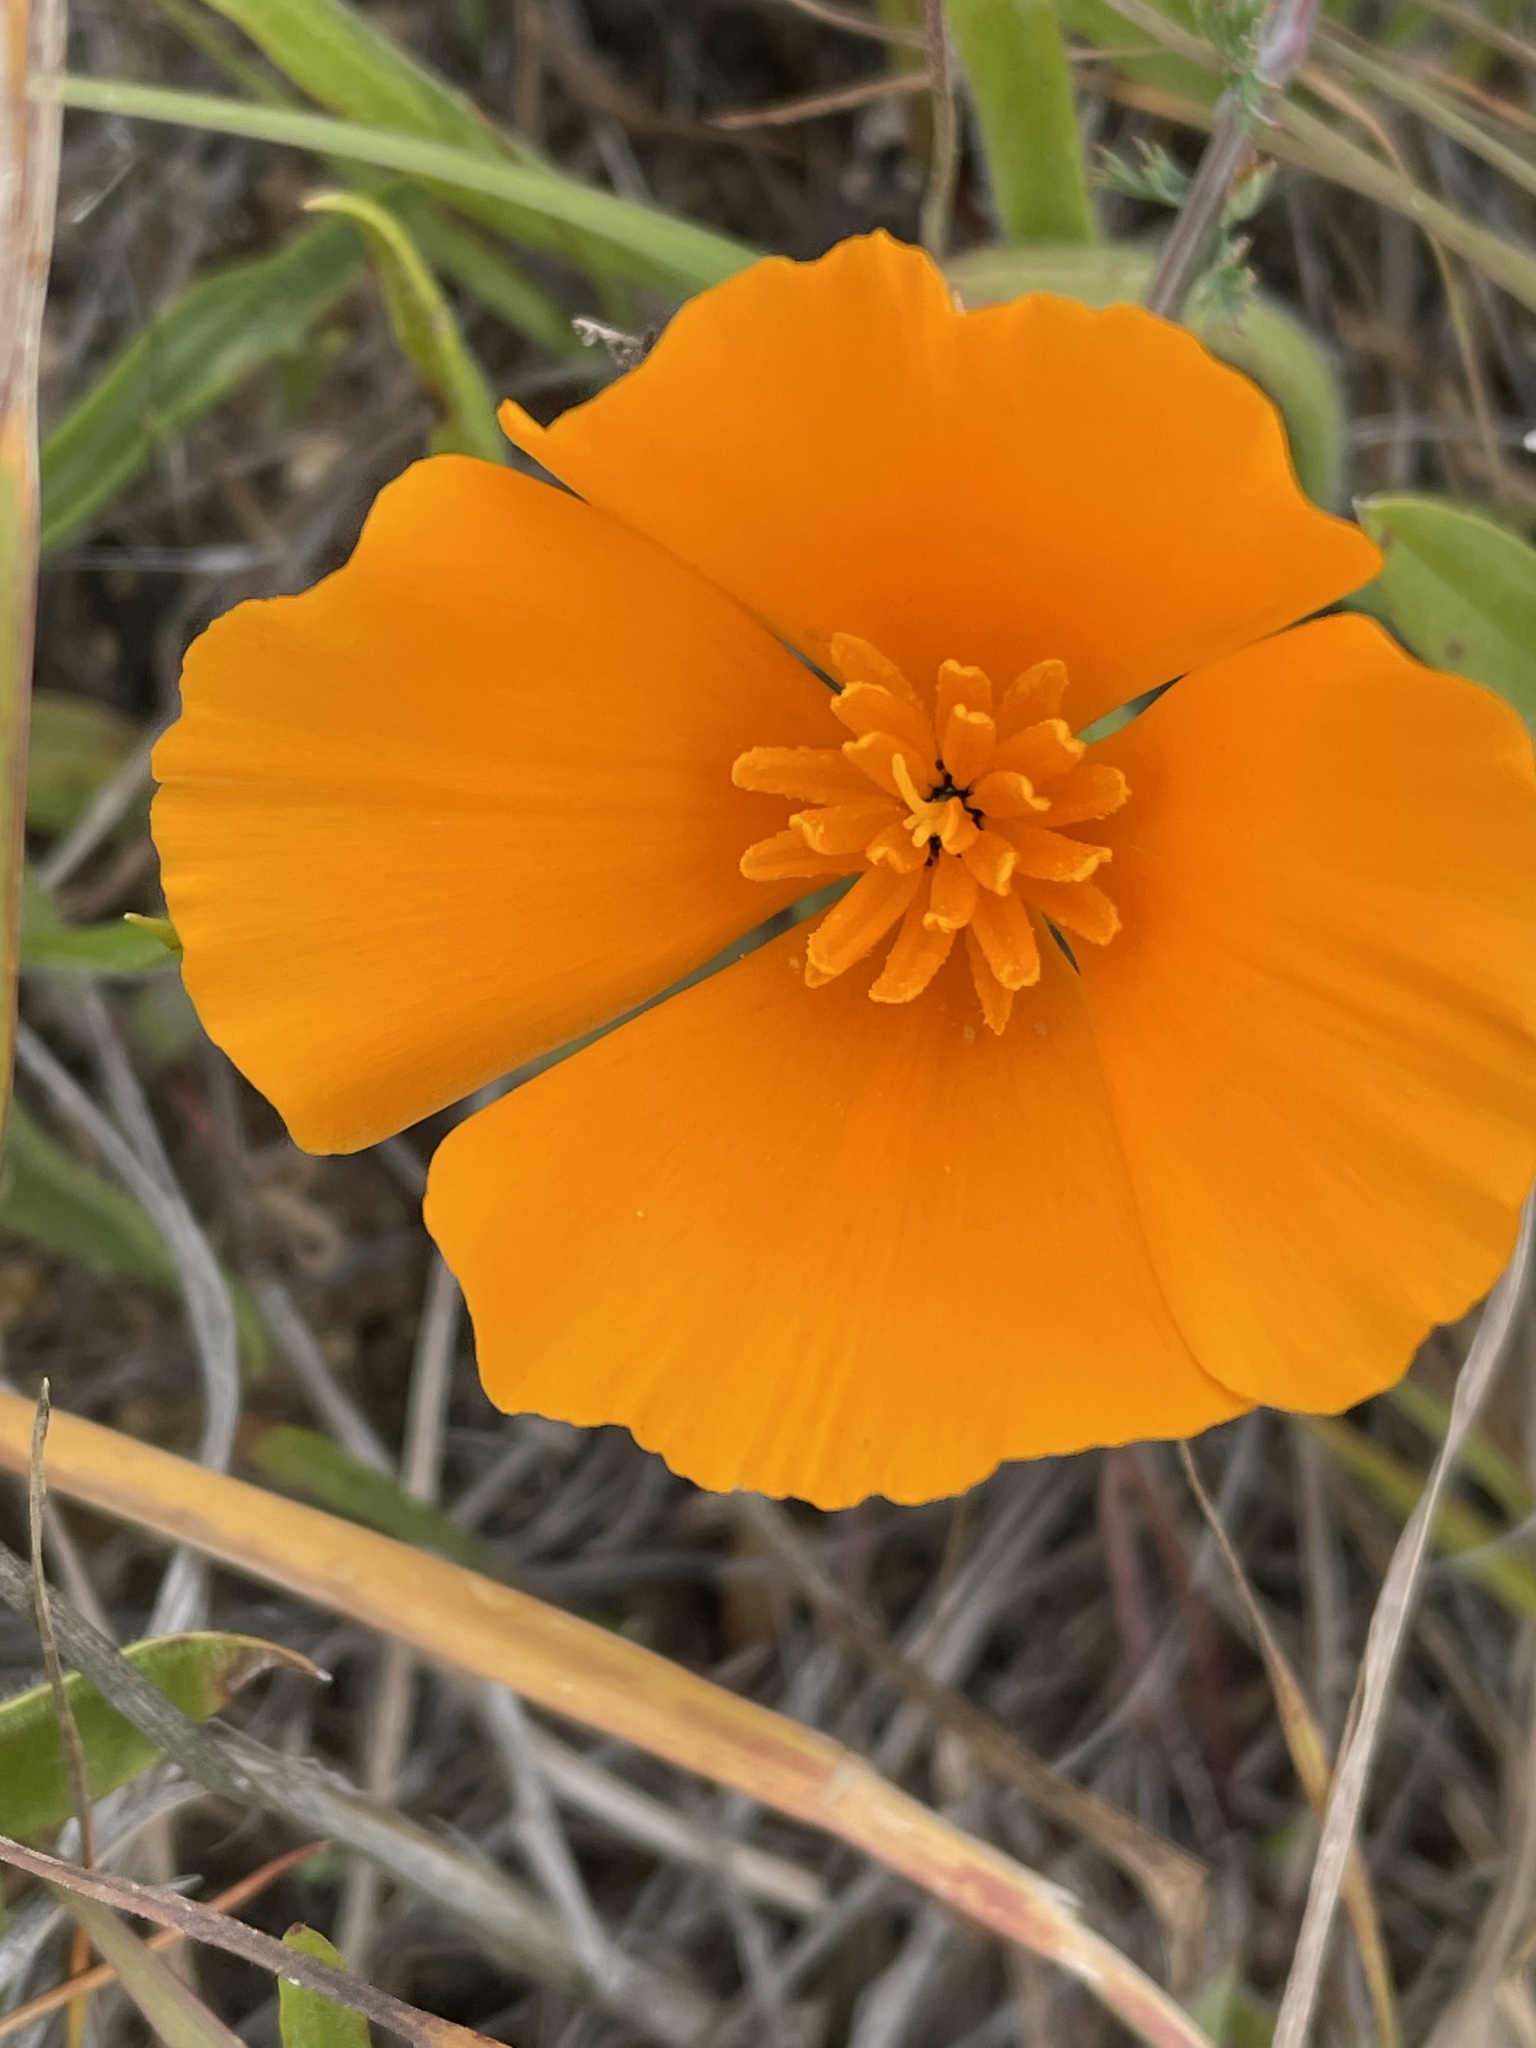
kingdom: Plantae
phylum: Tracheophyta
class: Magnoliopsida
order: Ranunculales
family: Papaveraceae
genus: Eschscholzia
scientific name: Eschscholzia californica
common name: California poppy
